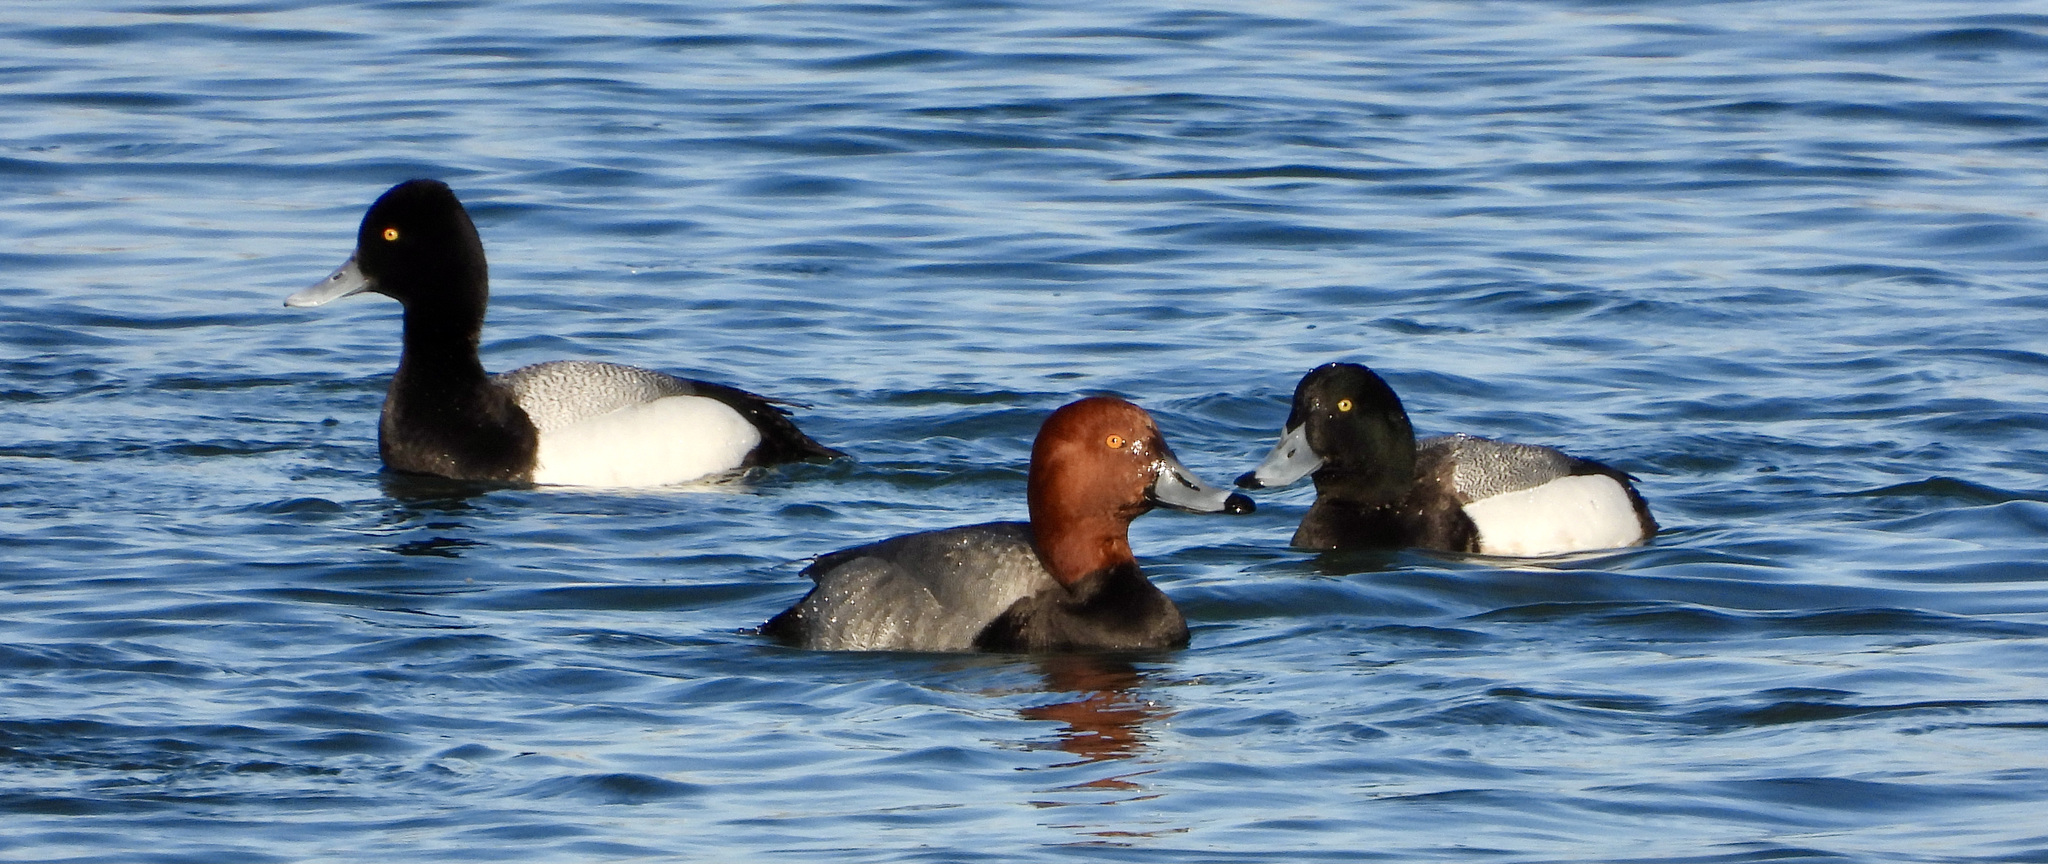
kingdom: Animalia
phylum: Chordata
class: Aves
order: Anseriformes
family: Anatidae
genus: Aythya
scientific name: Aythya americana
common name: Redhead
